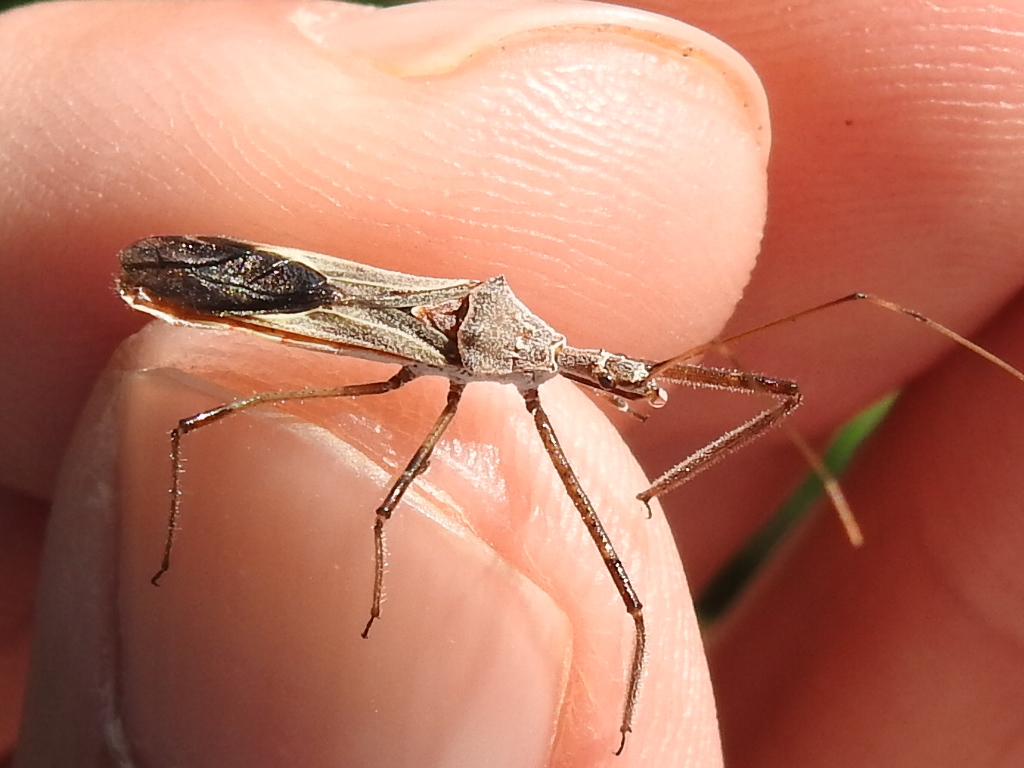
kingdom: Animalia
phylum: Arthropoda
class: Insecta
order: Hemiptera
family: Reduviidae
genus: Zelus
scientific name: Zelus tetracanthus
